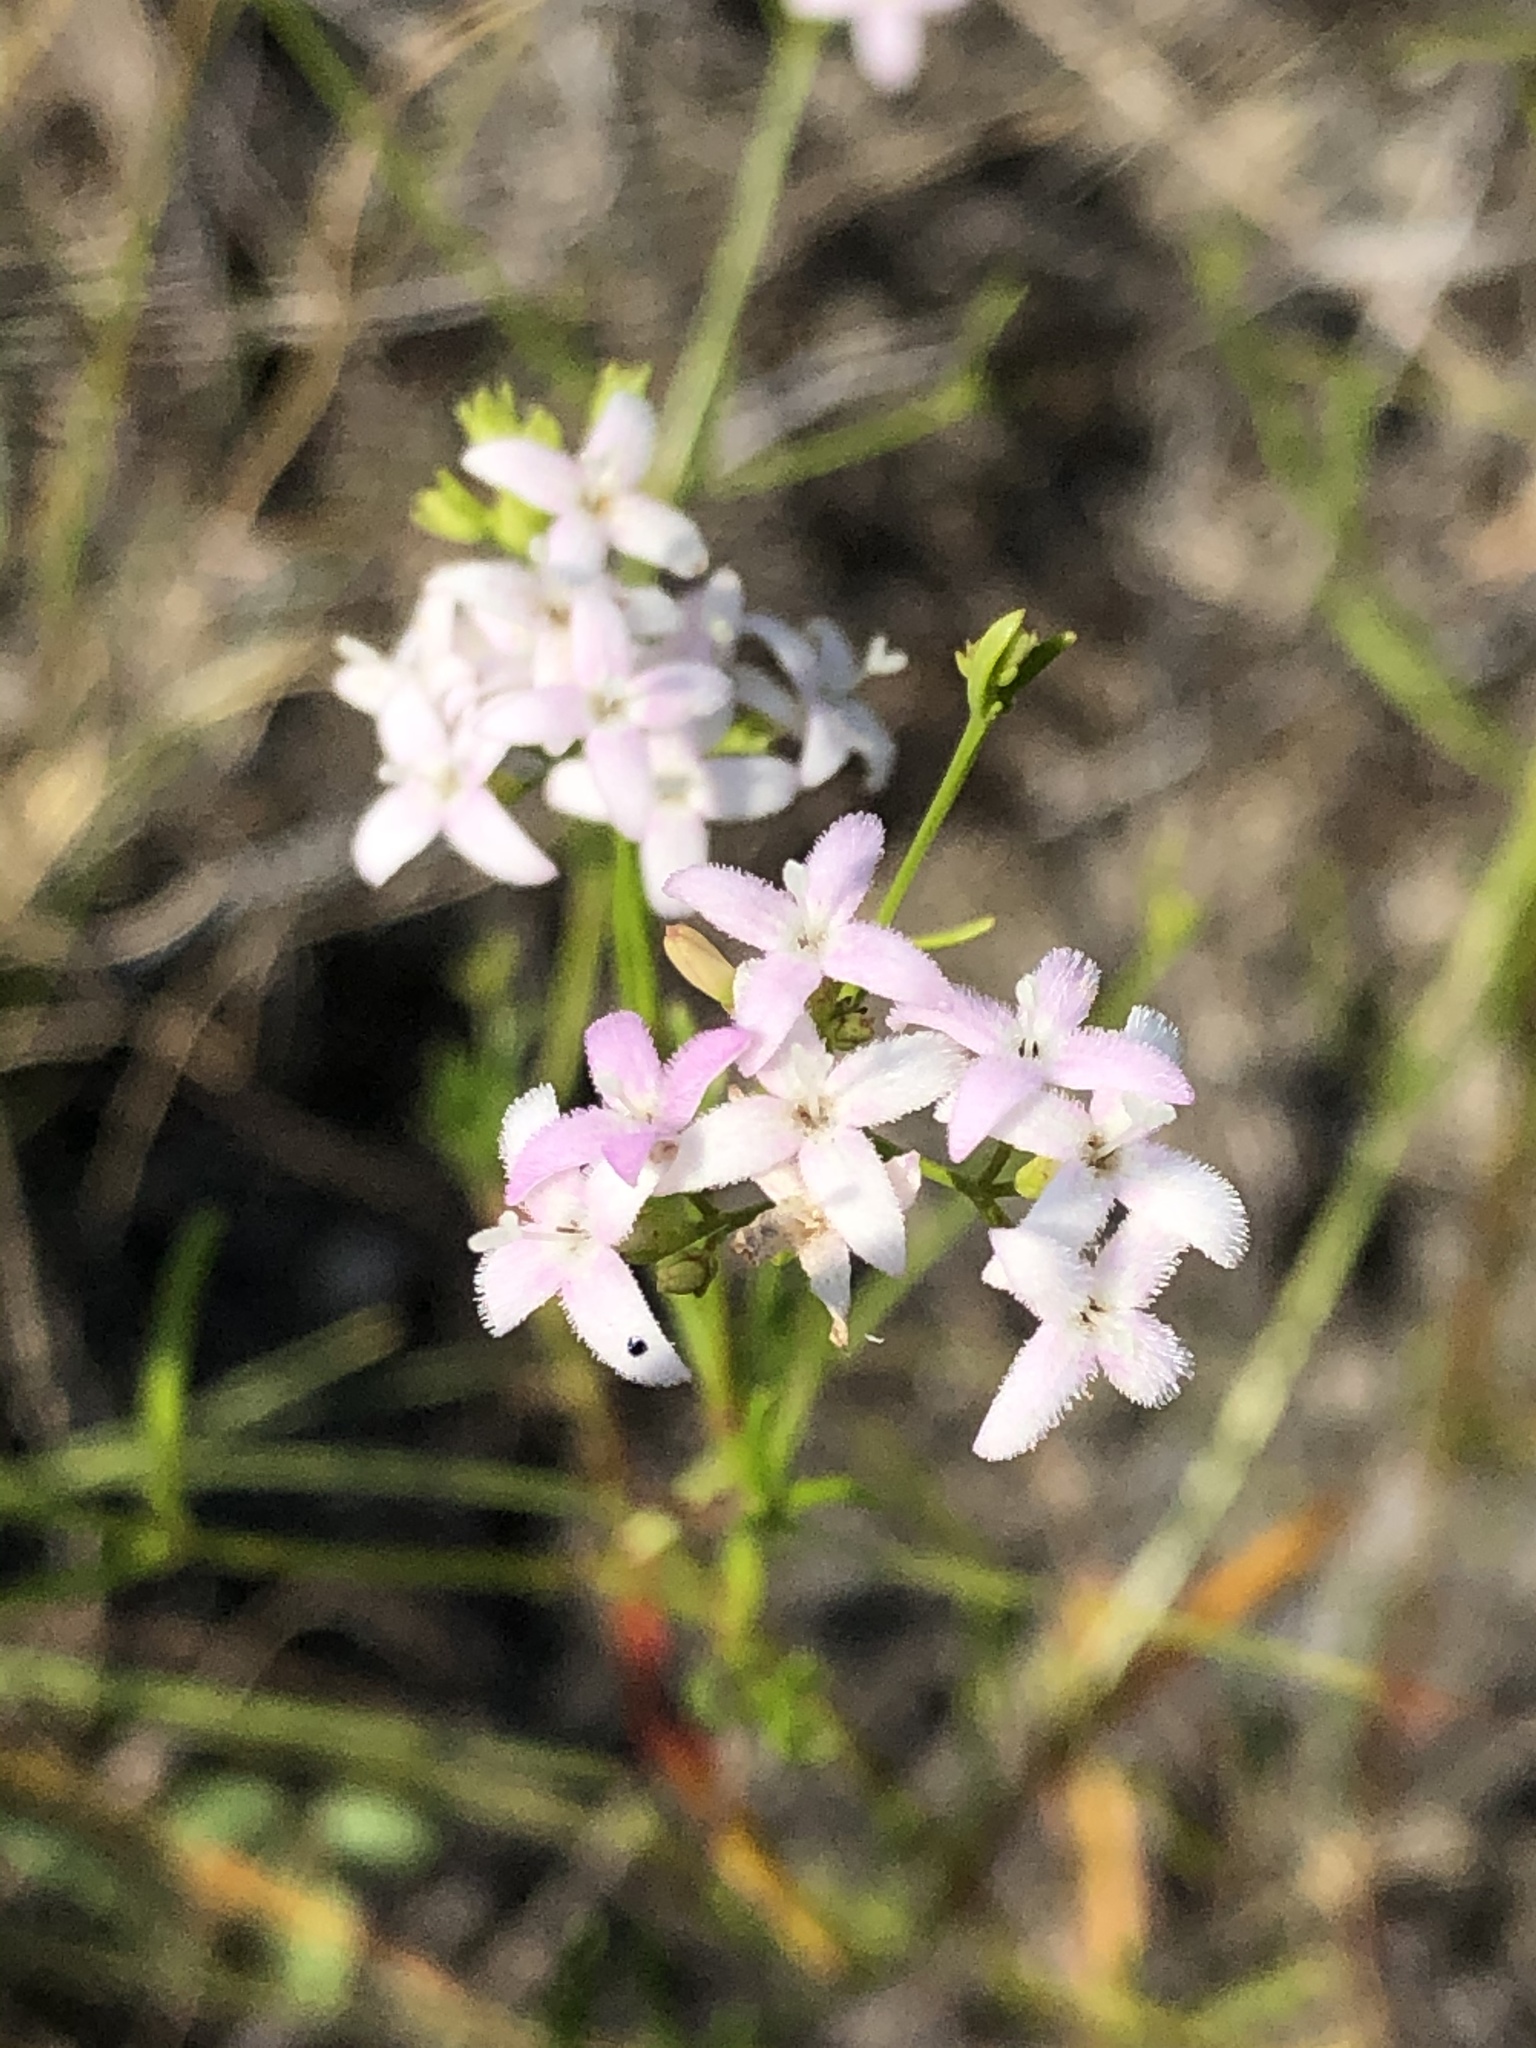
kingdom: Plantae
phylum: Tracheophyta
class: Magnoliopsida
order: Gentianales
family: Rubiaceae
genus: Stenaria
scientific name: Stenaria nigricans
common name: Diamondflowers
